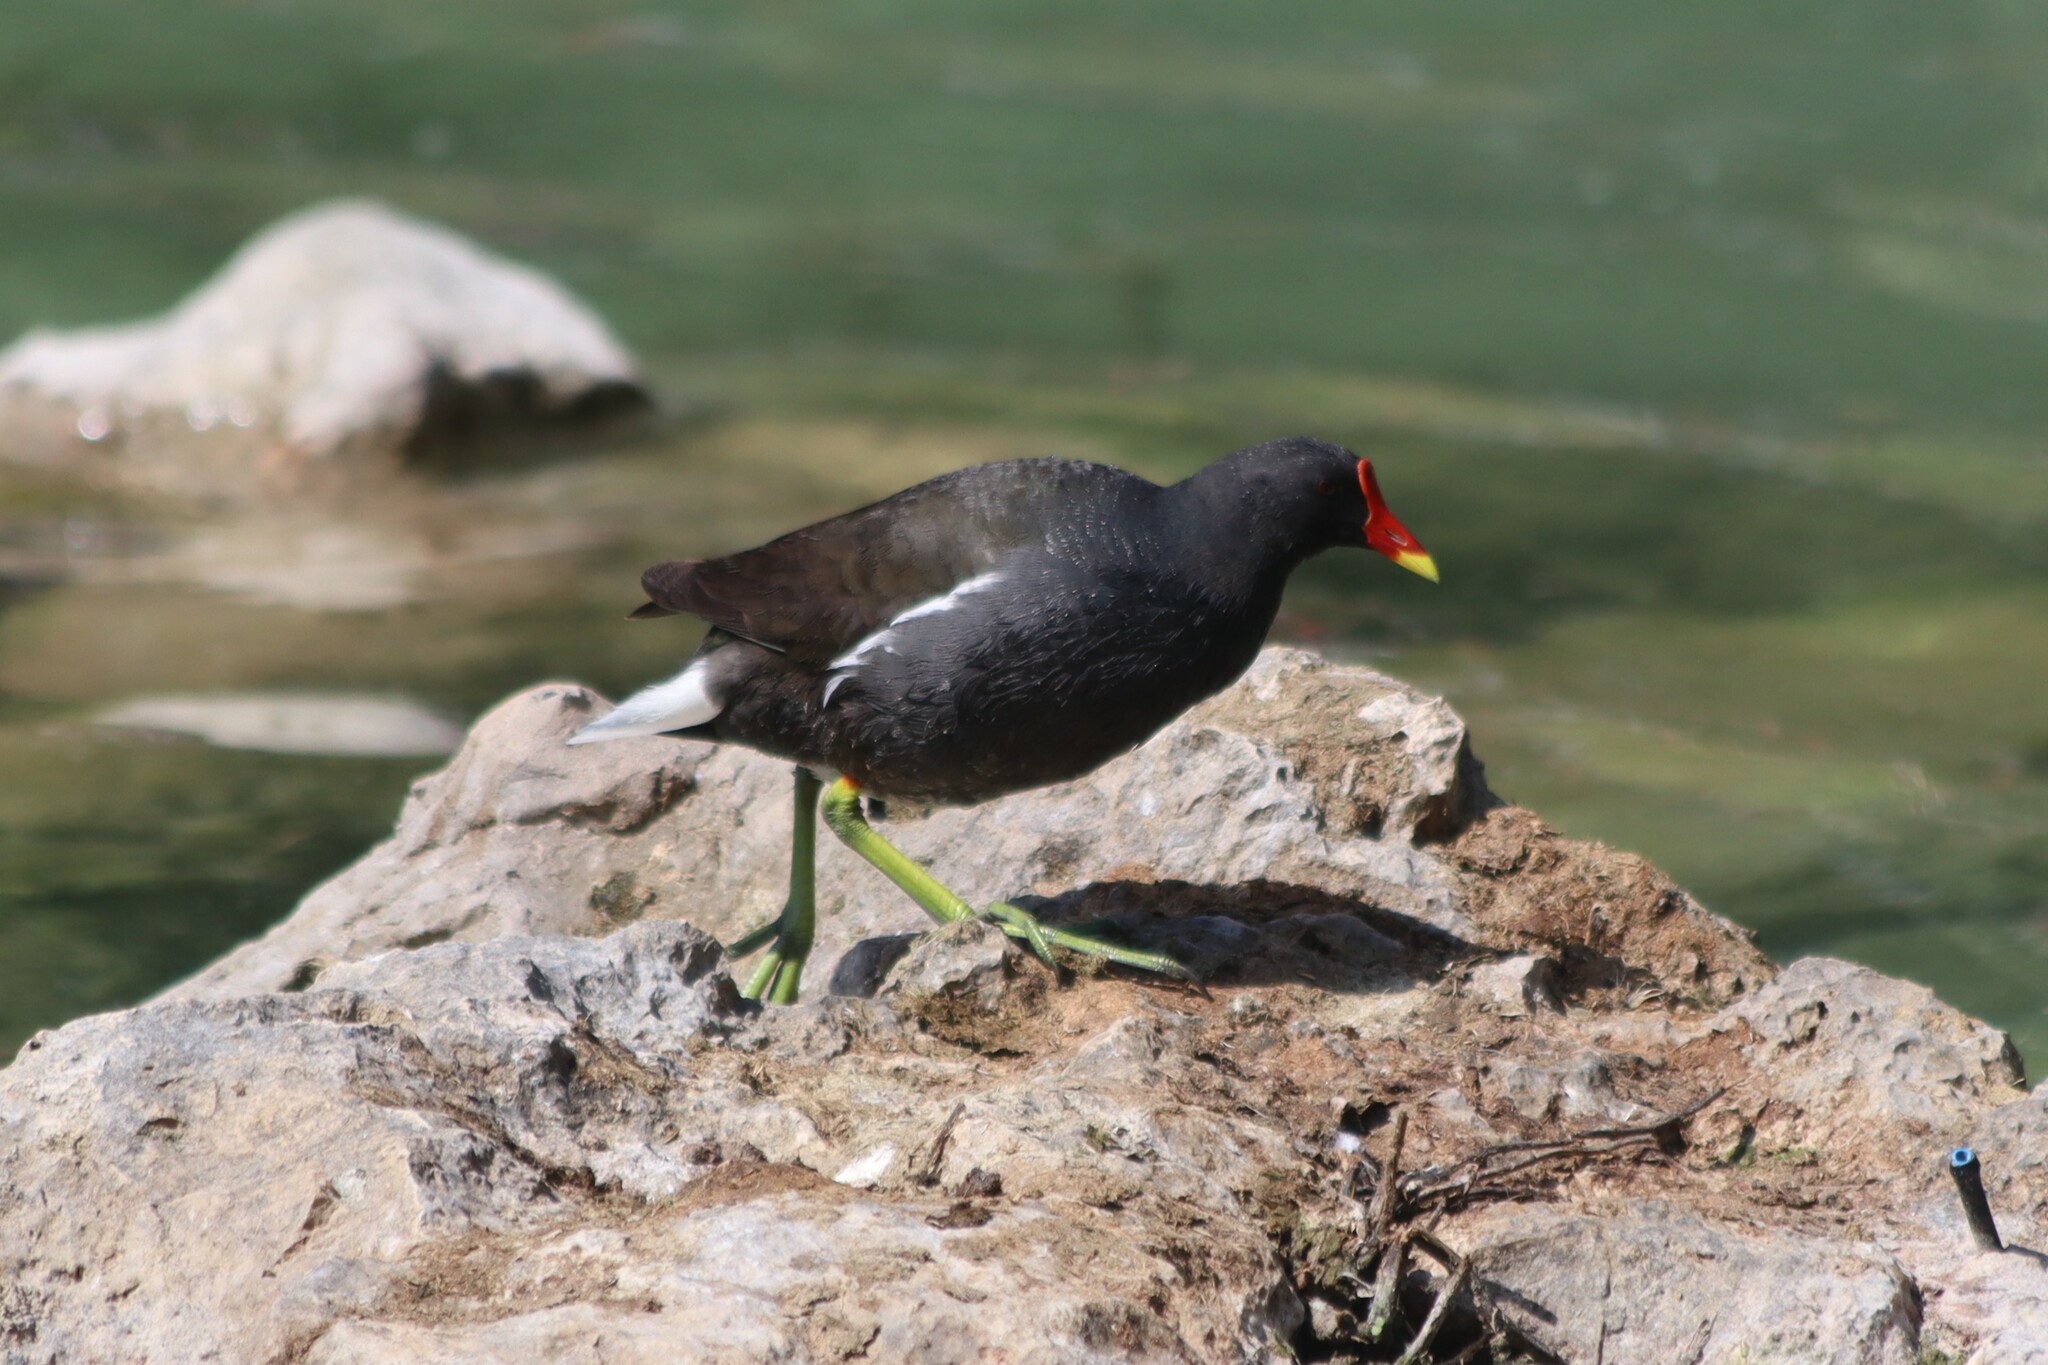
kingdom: Animalia
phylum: Chordata
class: Aves
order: Gruiformes
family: Rallidae
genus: Gallinula
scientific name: Gallinula chloropus
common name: Common moorhen
